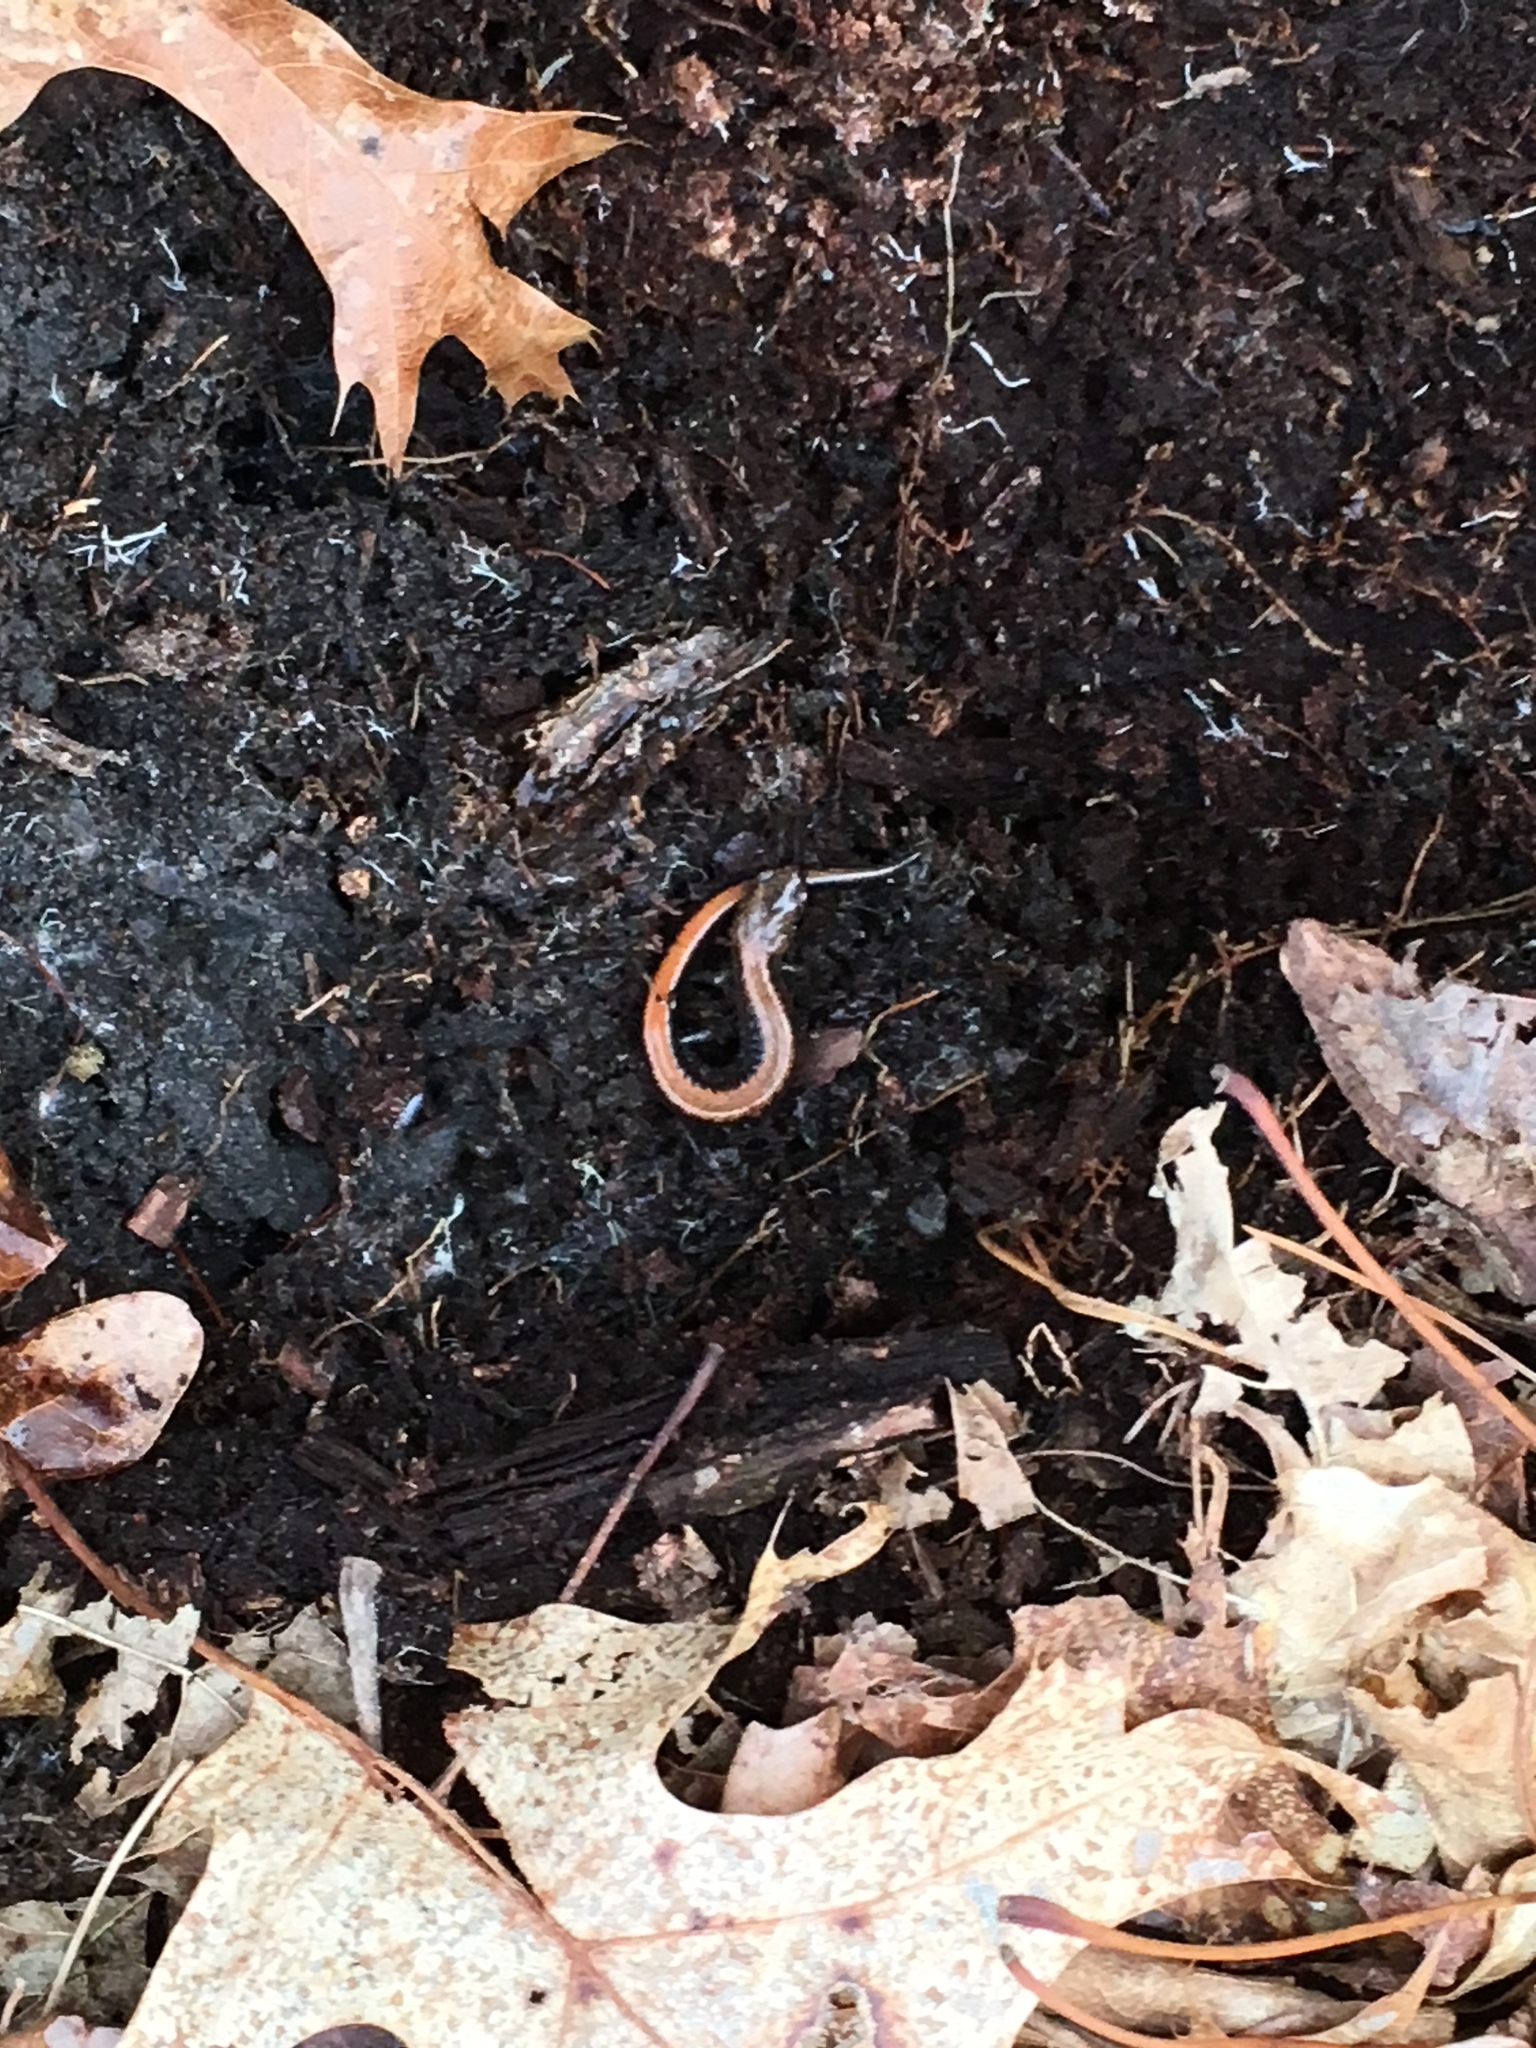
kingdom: Animalia
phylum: Chordata
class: Amphibia
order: Caudata
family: Plethodontidae
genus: Plethodon
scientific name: Plethodon cinereus
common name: Redback salamander
